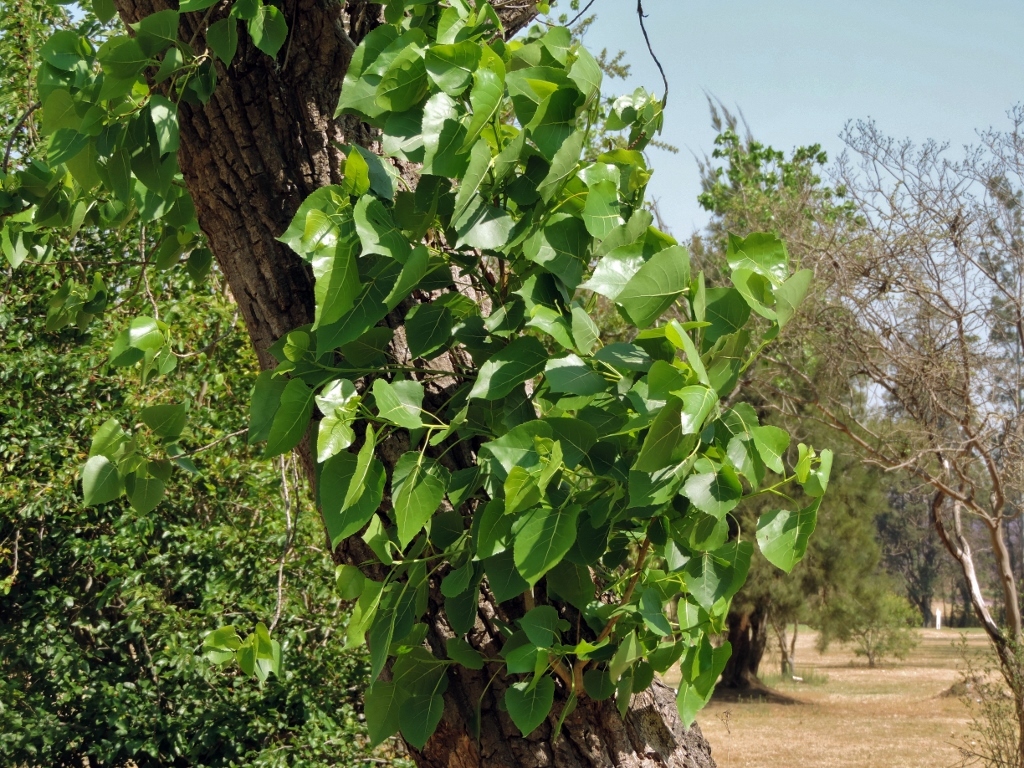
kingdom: Plantae
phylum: Tracheophyta
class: Magnoliopsida
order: Malpighiales
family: Salicaceae
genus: Populus
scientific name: Populus deltoides
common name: Eastern cottonwood
